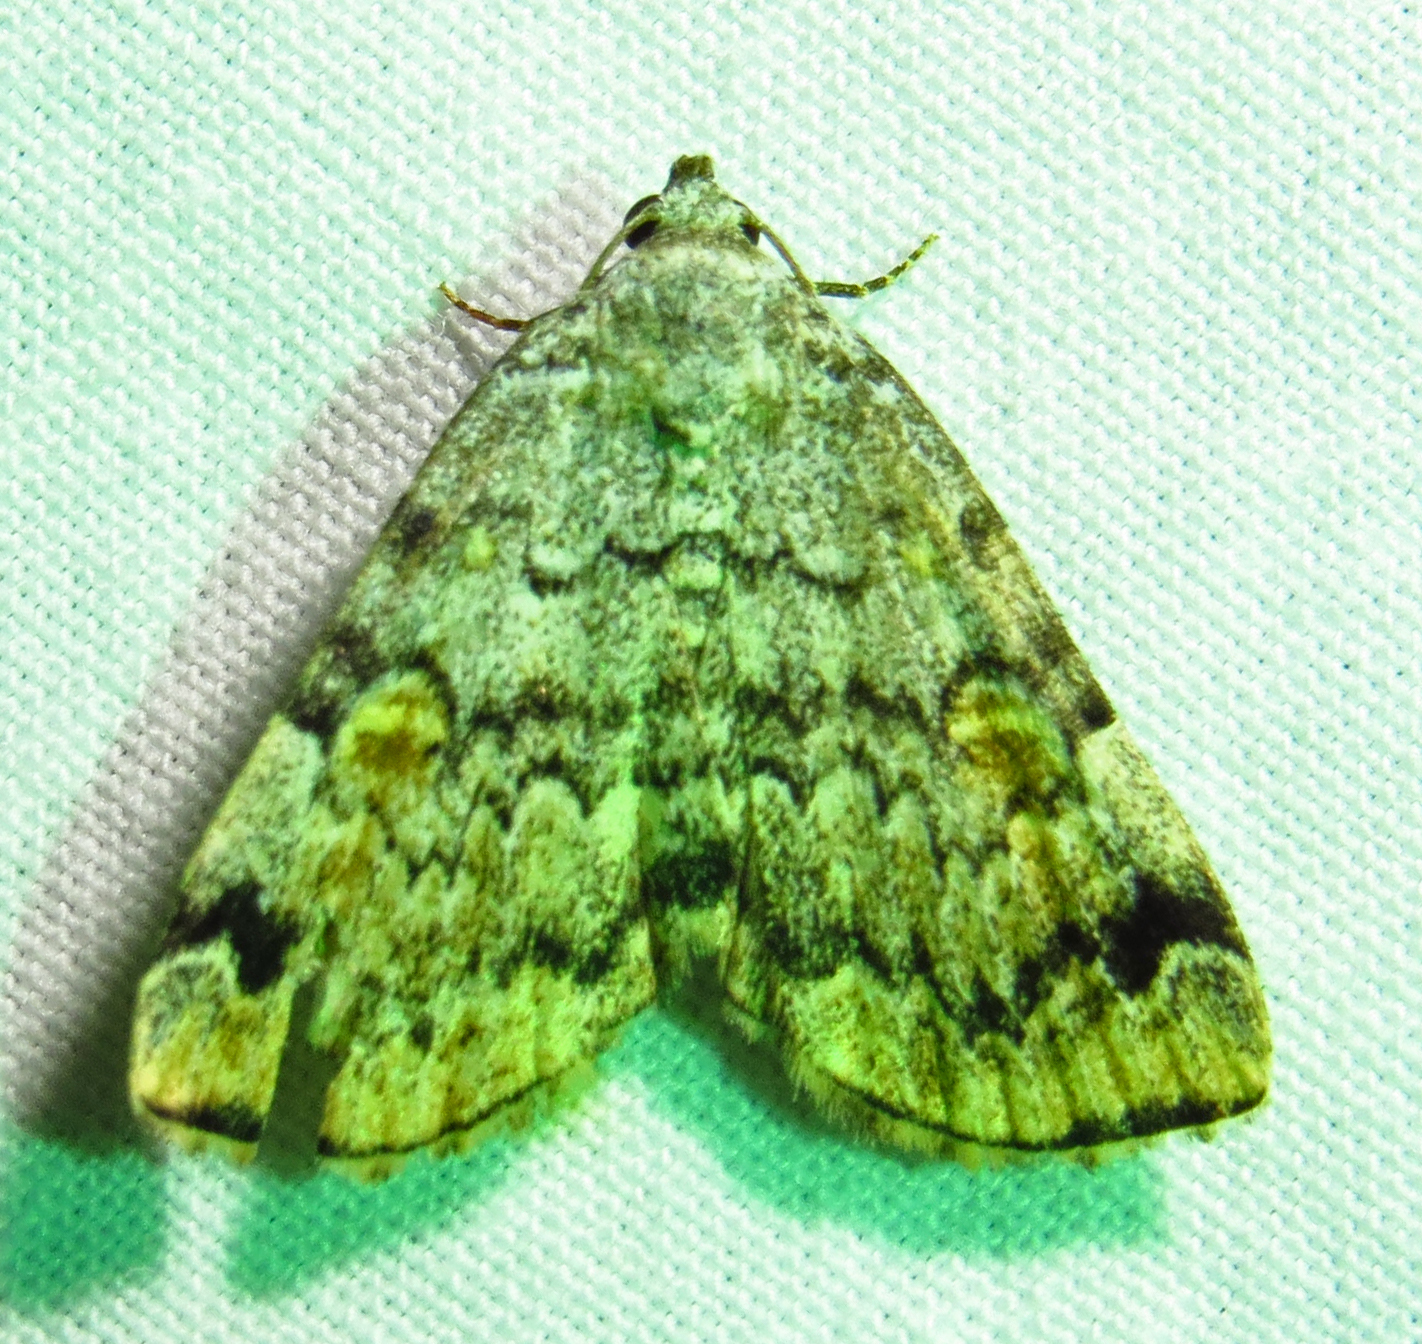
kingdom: Animalia
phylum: Arthropoda
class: Insecta
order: Lepidoptera
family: Erebidae
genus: Idia
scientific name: Idia americalis
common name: American idia moth
